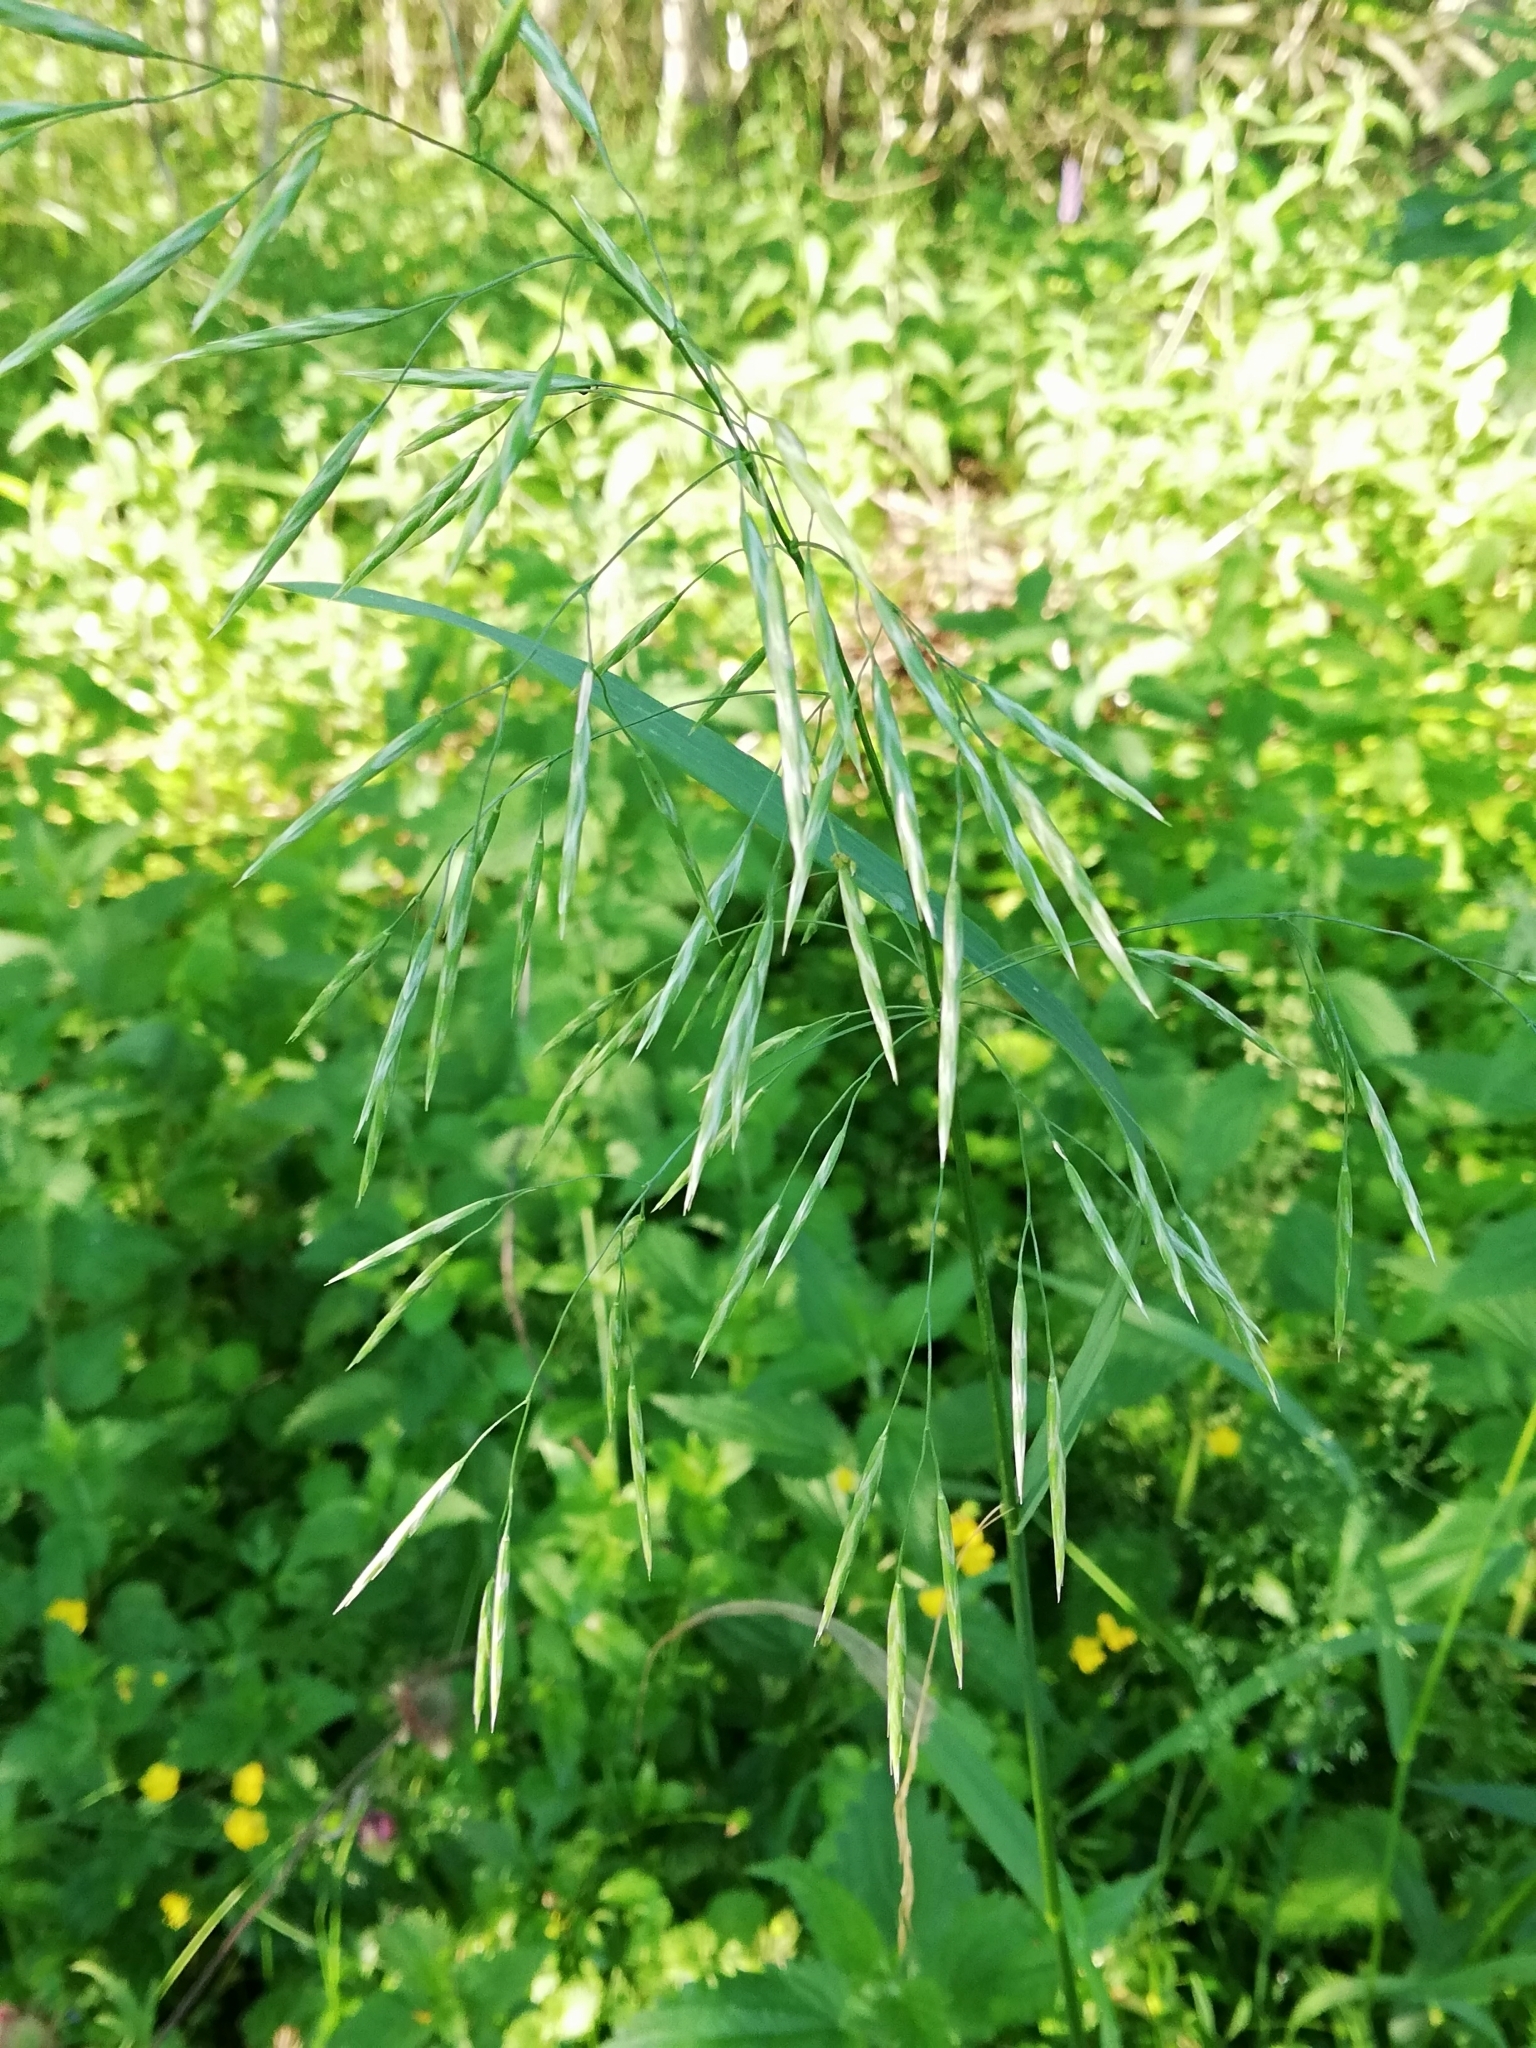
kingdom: Plantae
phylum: Tracheophyta
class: Liliopsida
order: Poales
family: Poaceae
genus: Bromus
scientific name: Bromus inermis
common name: Smooth brome
